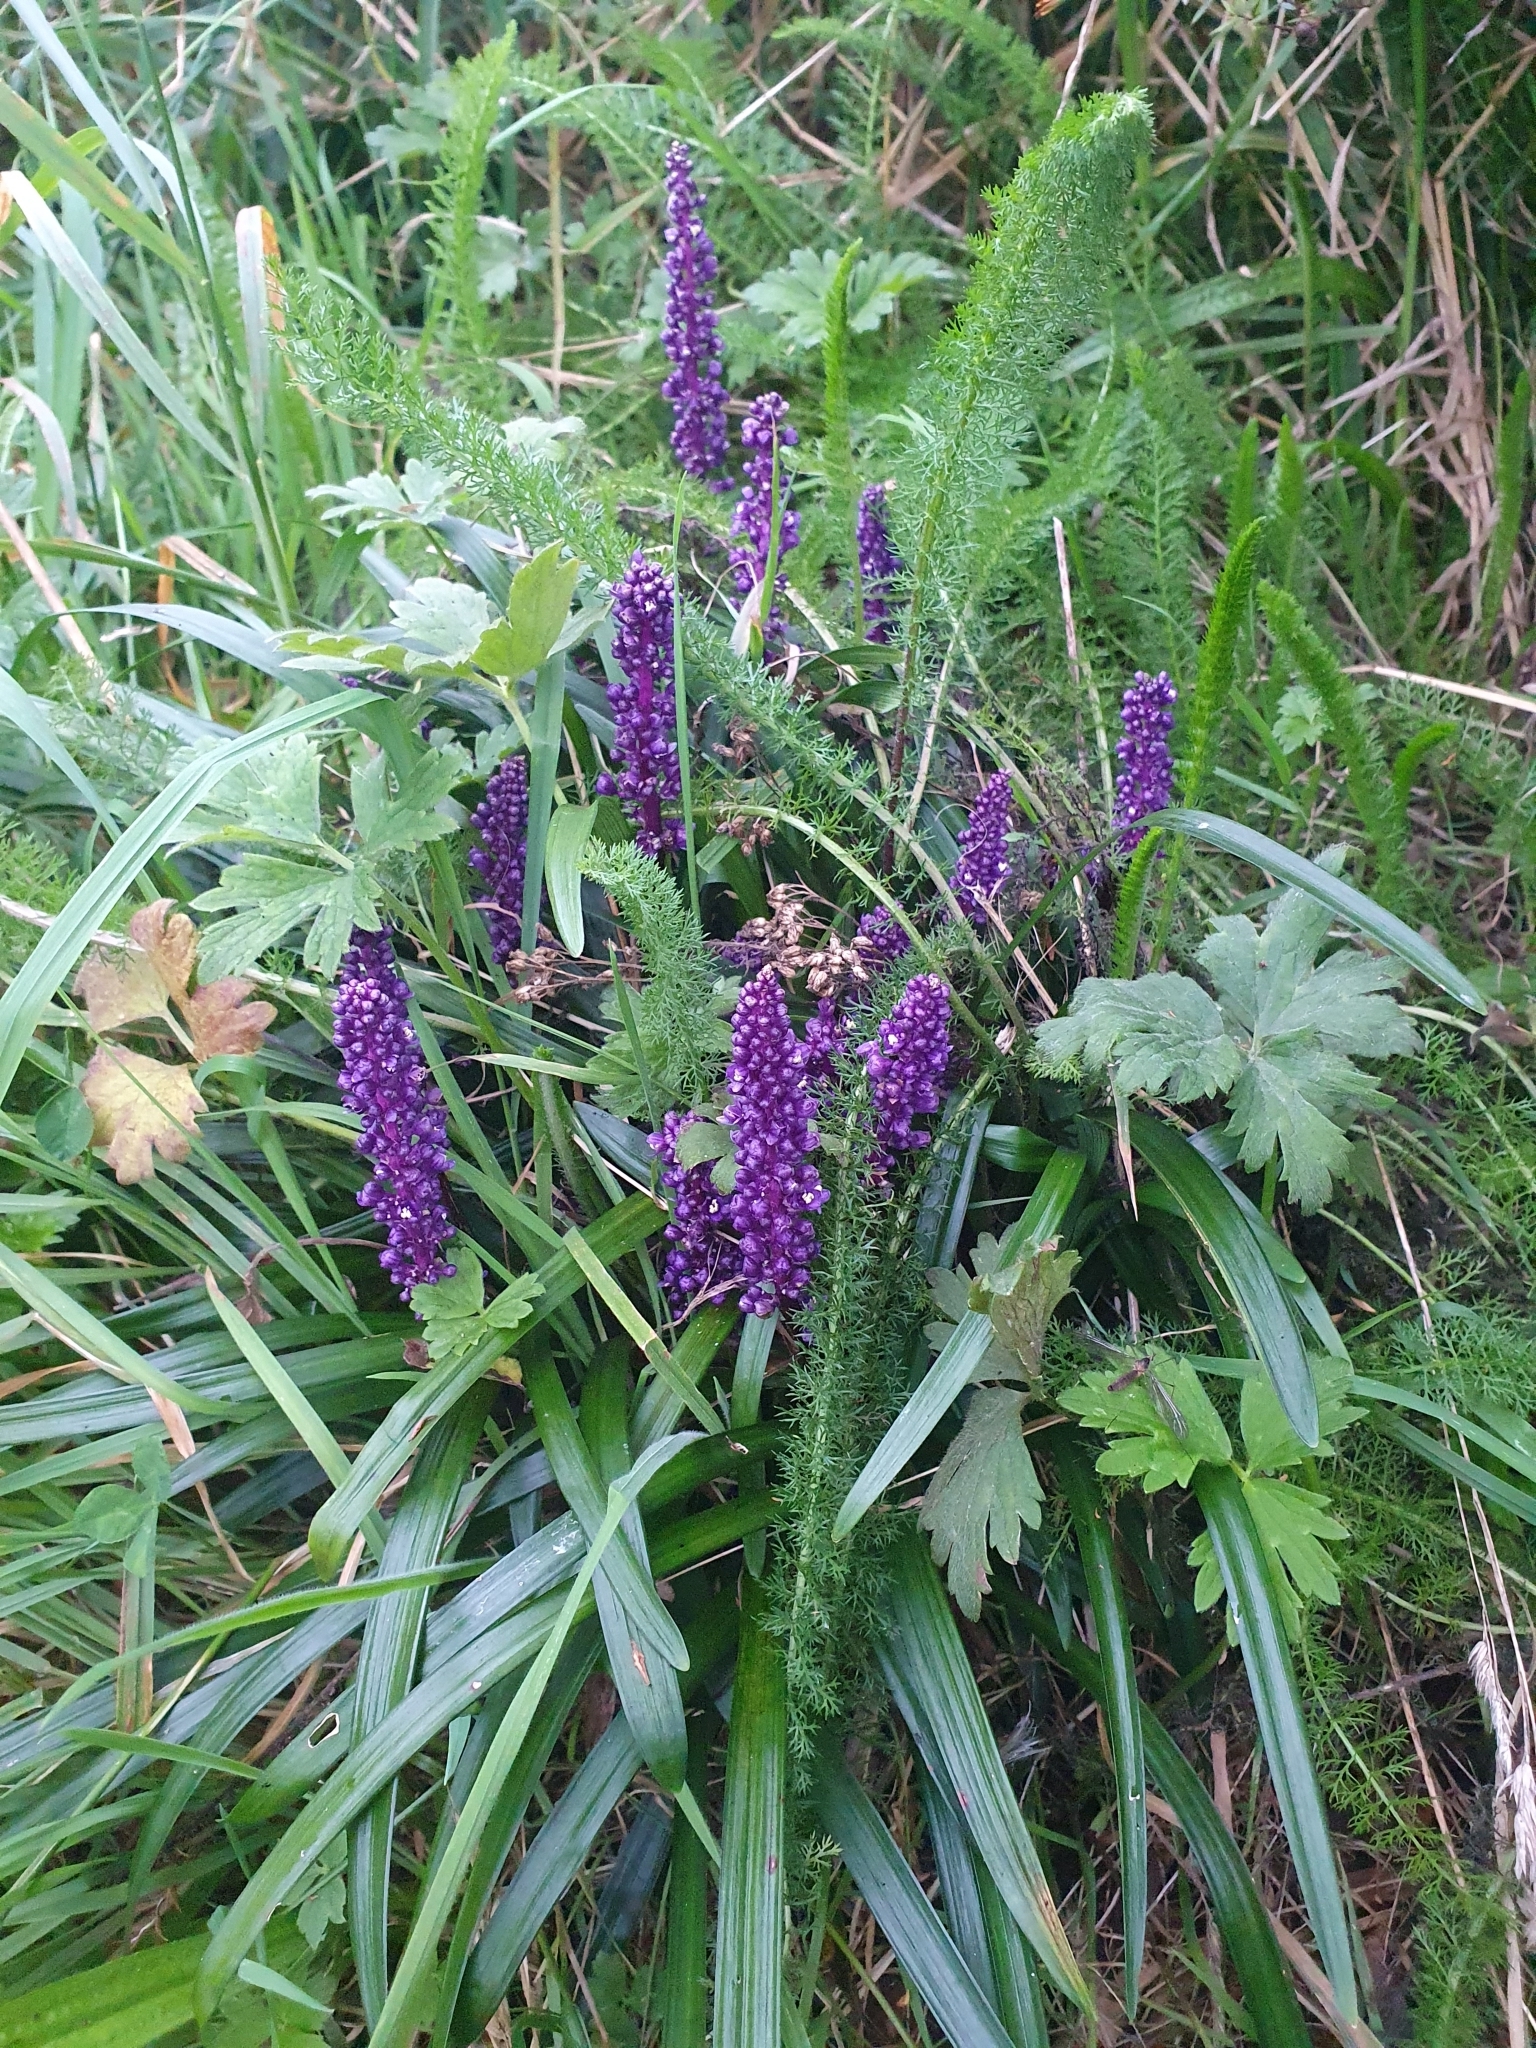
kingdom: Plantae
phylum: Tracheophyta
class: Liliopsida
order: Asparagales
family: Asparagaceae
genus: Liriope
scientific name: Liriope muscari
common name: Big blue lilyturf
